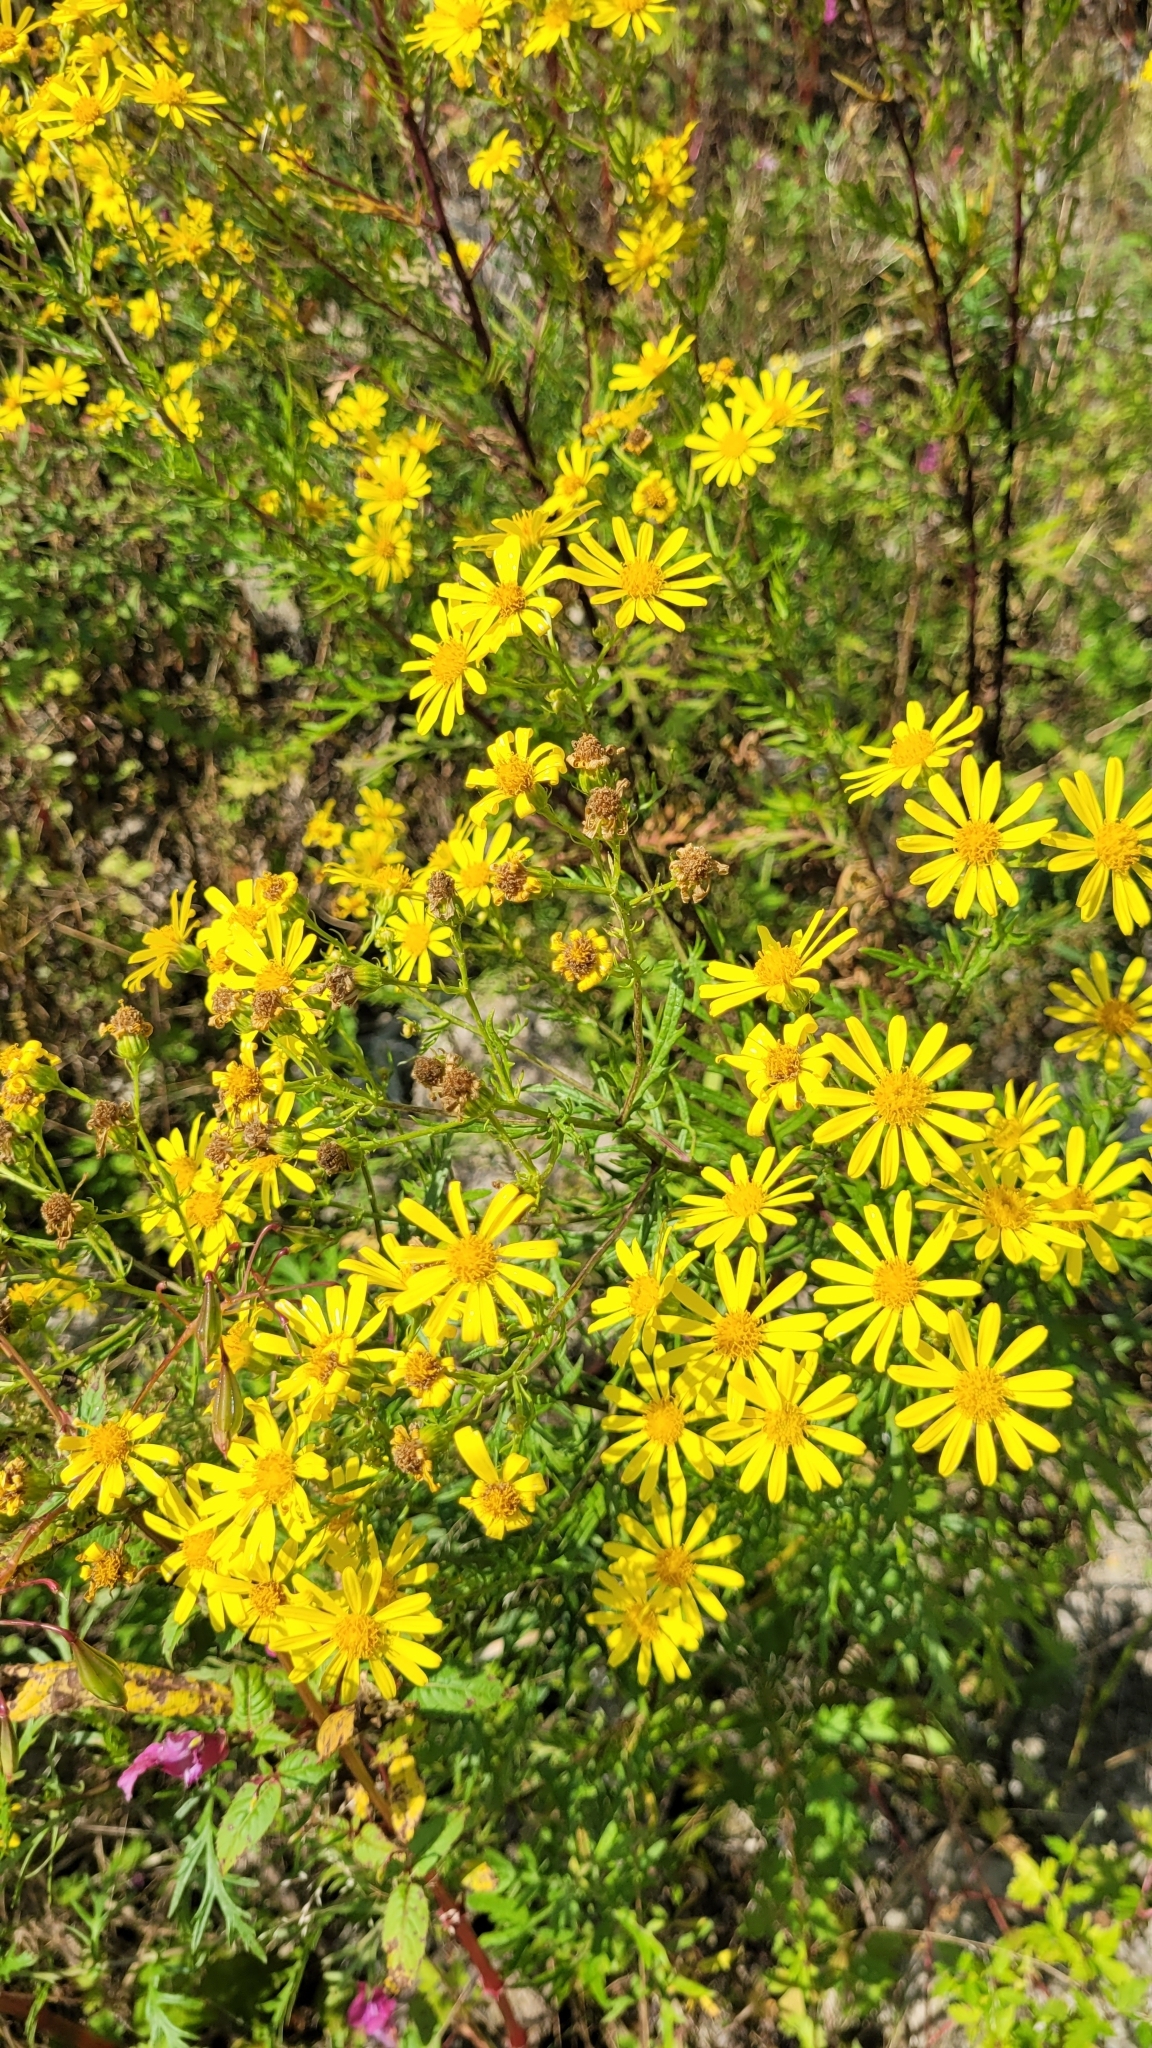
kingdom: Plantae
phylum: Tracheophyta
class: Magnoliopsida
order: Asterales
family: Asteraceae
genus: Jacobaea
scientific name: Jacobaea erucifolia
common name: Hoary ragwort
